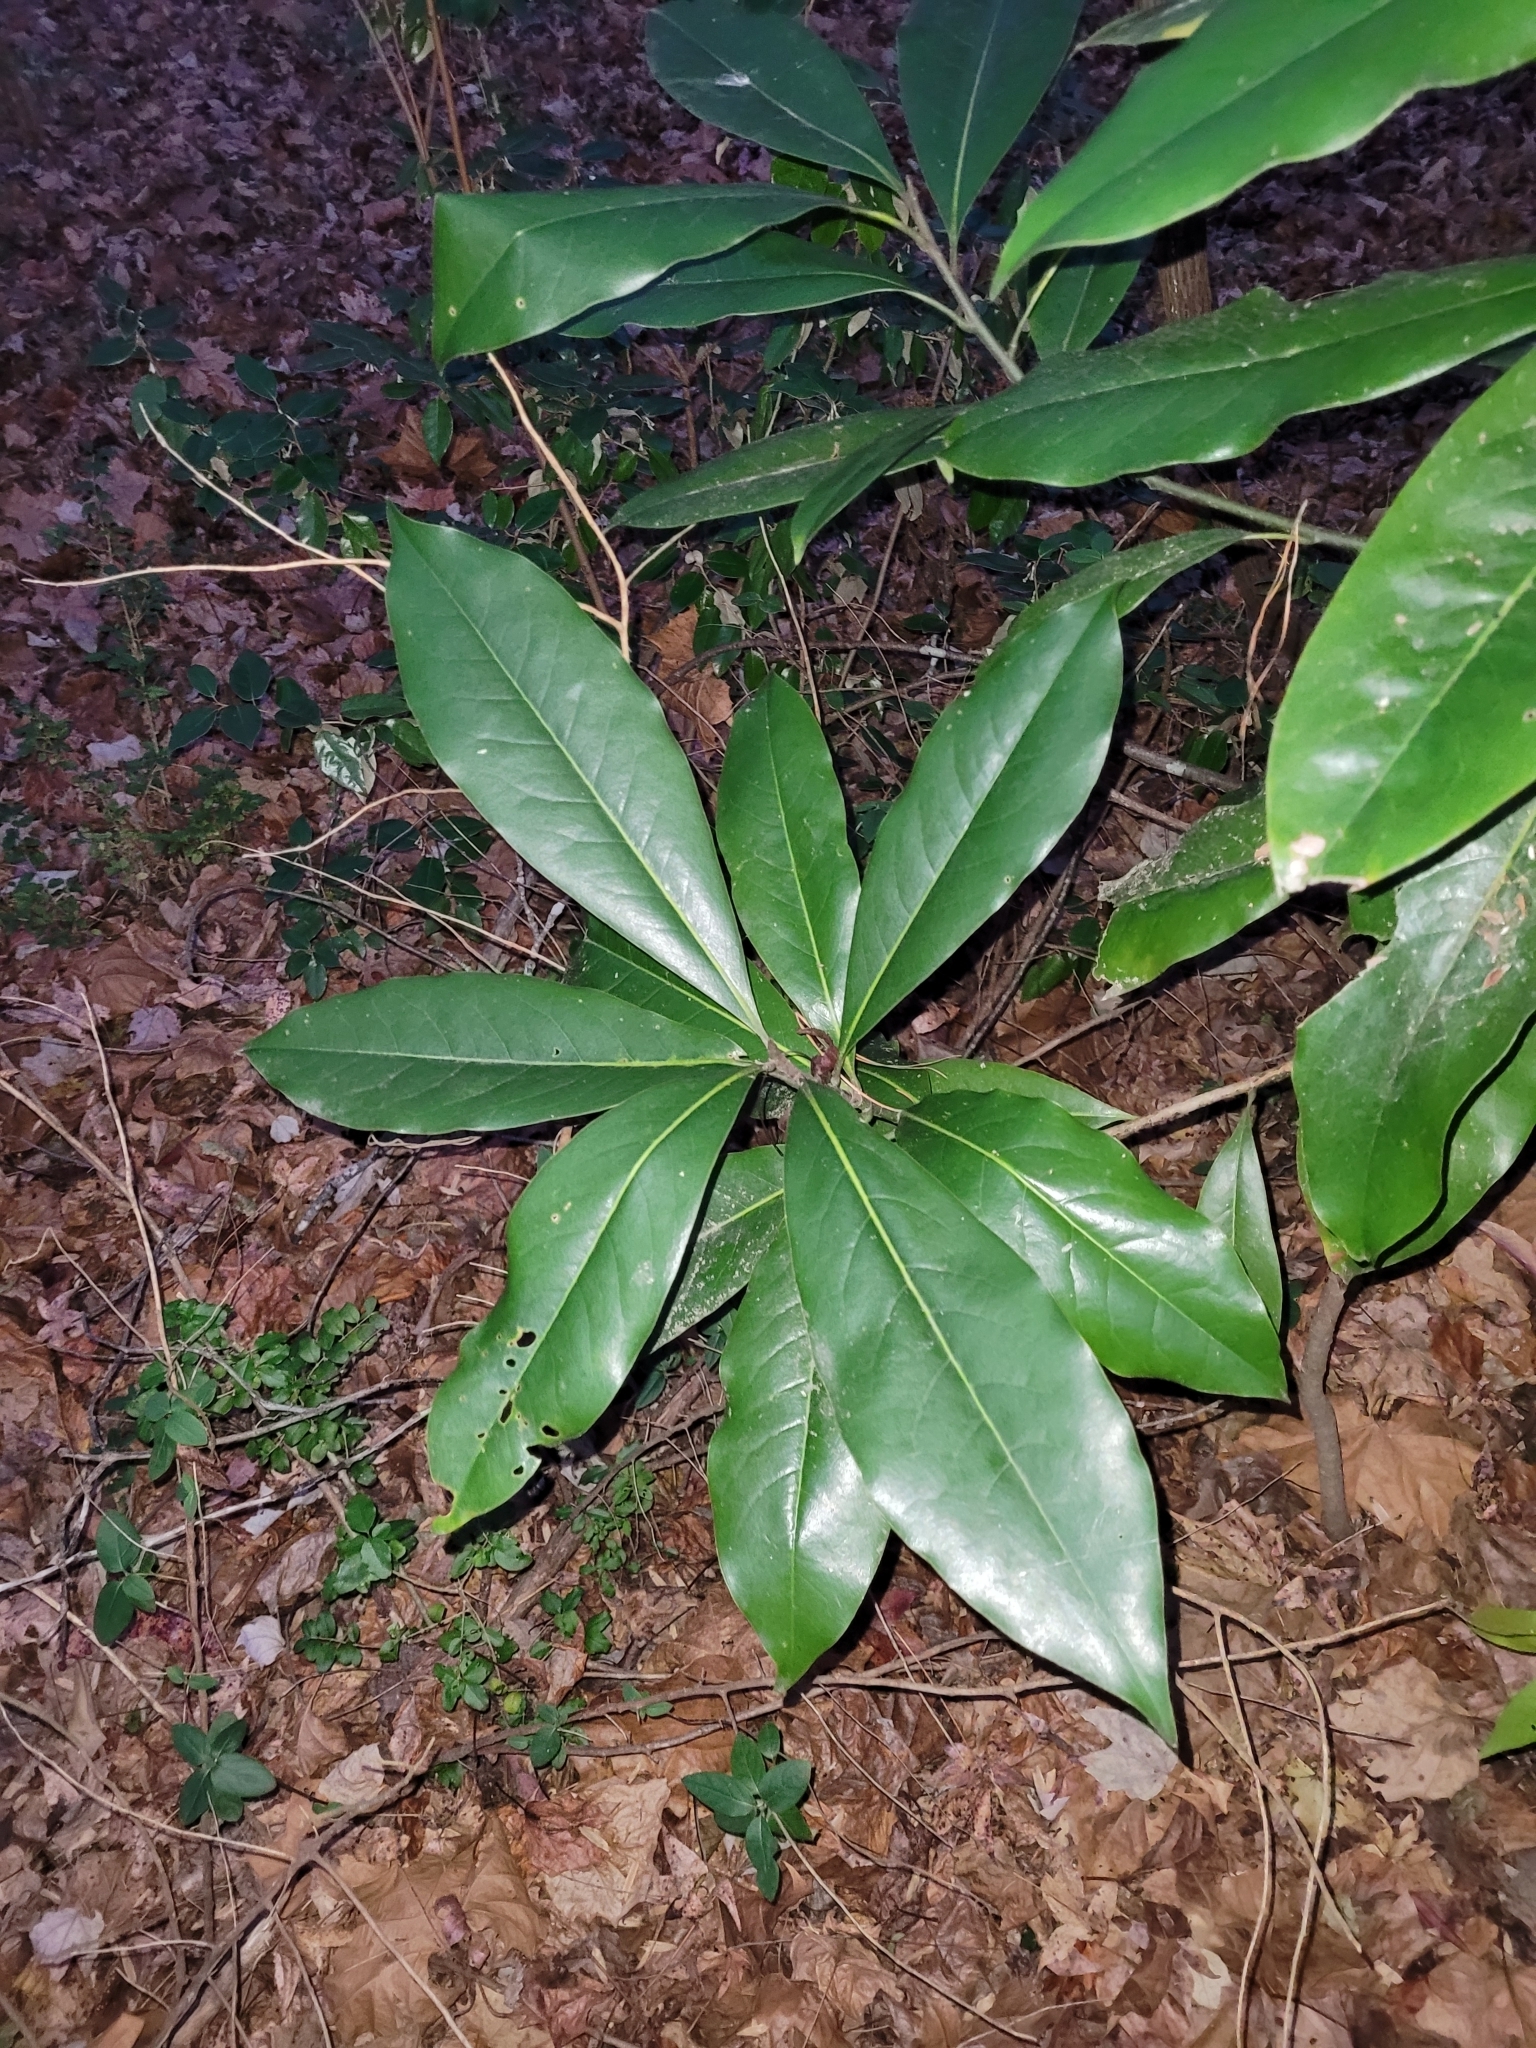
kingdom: Plantae
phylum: Tracheophyta
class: Magnoliopsida
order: Magnoliales
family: Magnoliaceae
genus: Magnolia
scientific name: Magnolia grandiflora
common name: Southern magnolia
